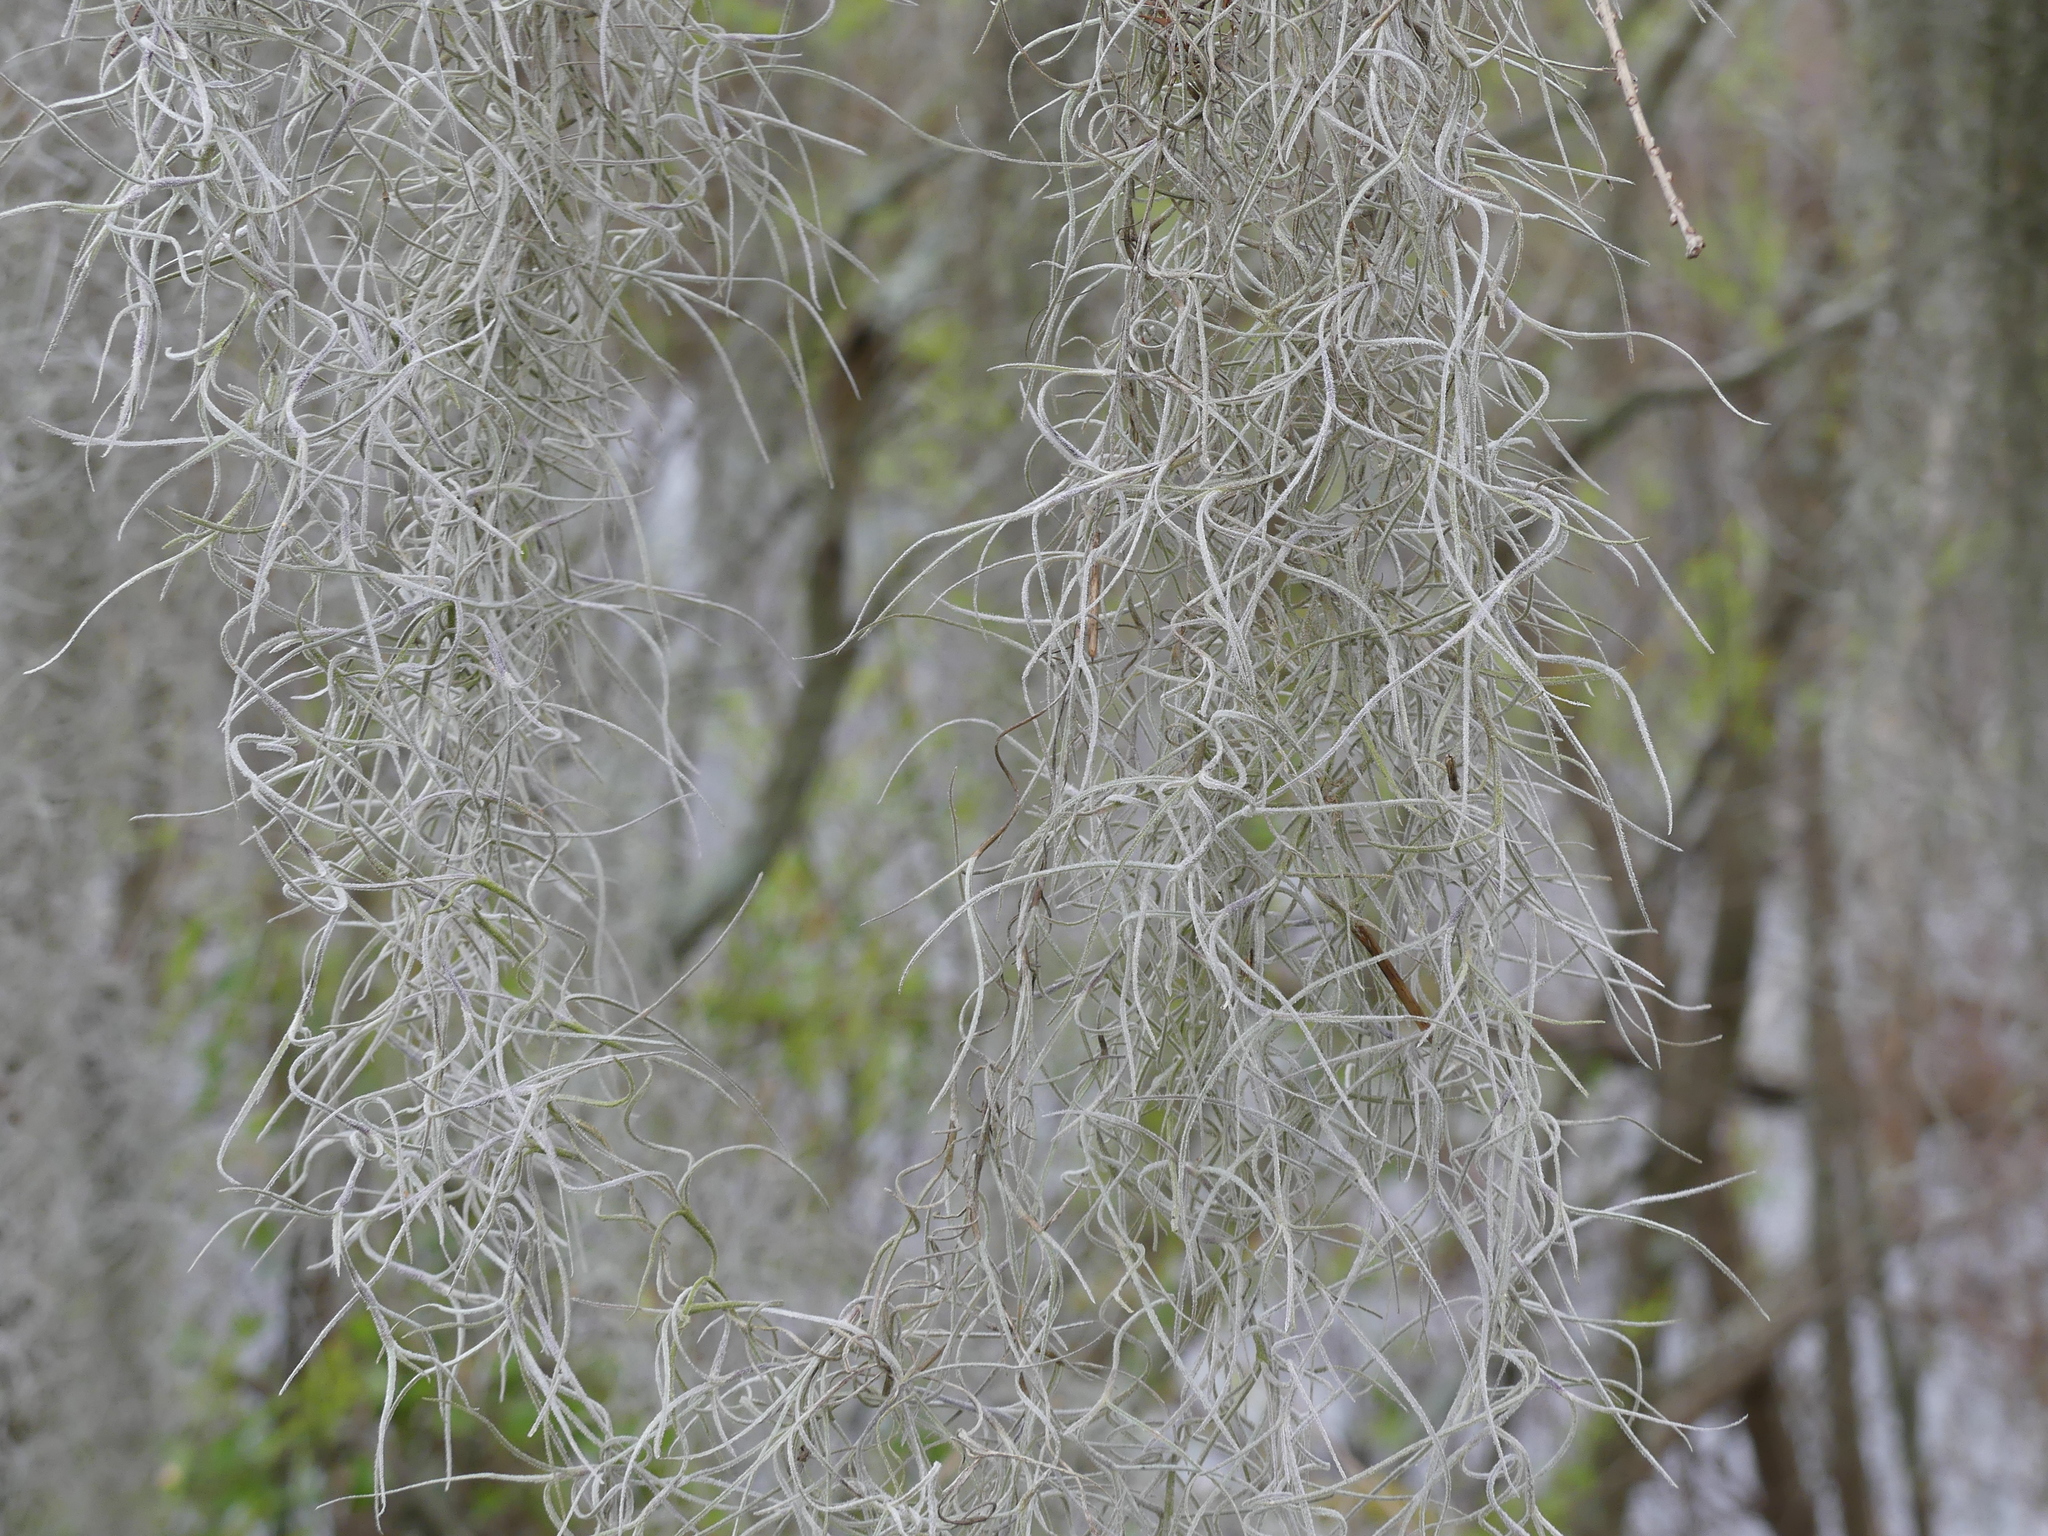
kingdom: Plantae
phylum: Tracheophyta
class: Liliopsida
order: Poales
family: Bromeliaceae
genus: Tillandsia
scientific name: Tillandsia usneoides
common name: Spanish moss
